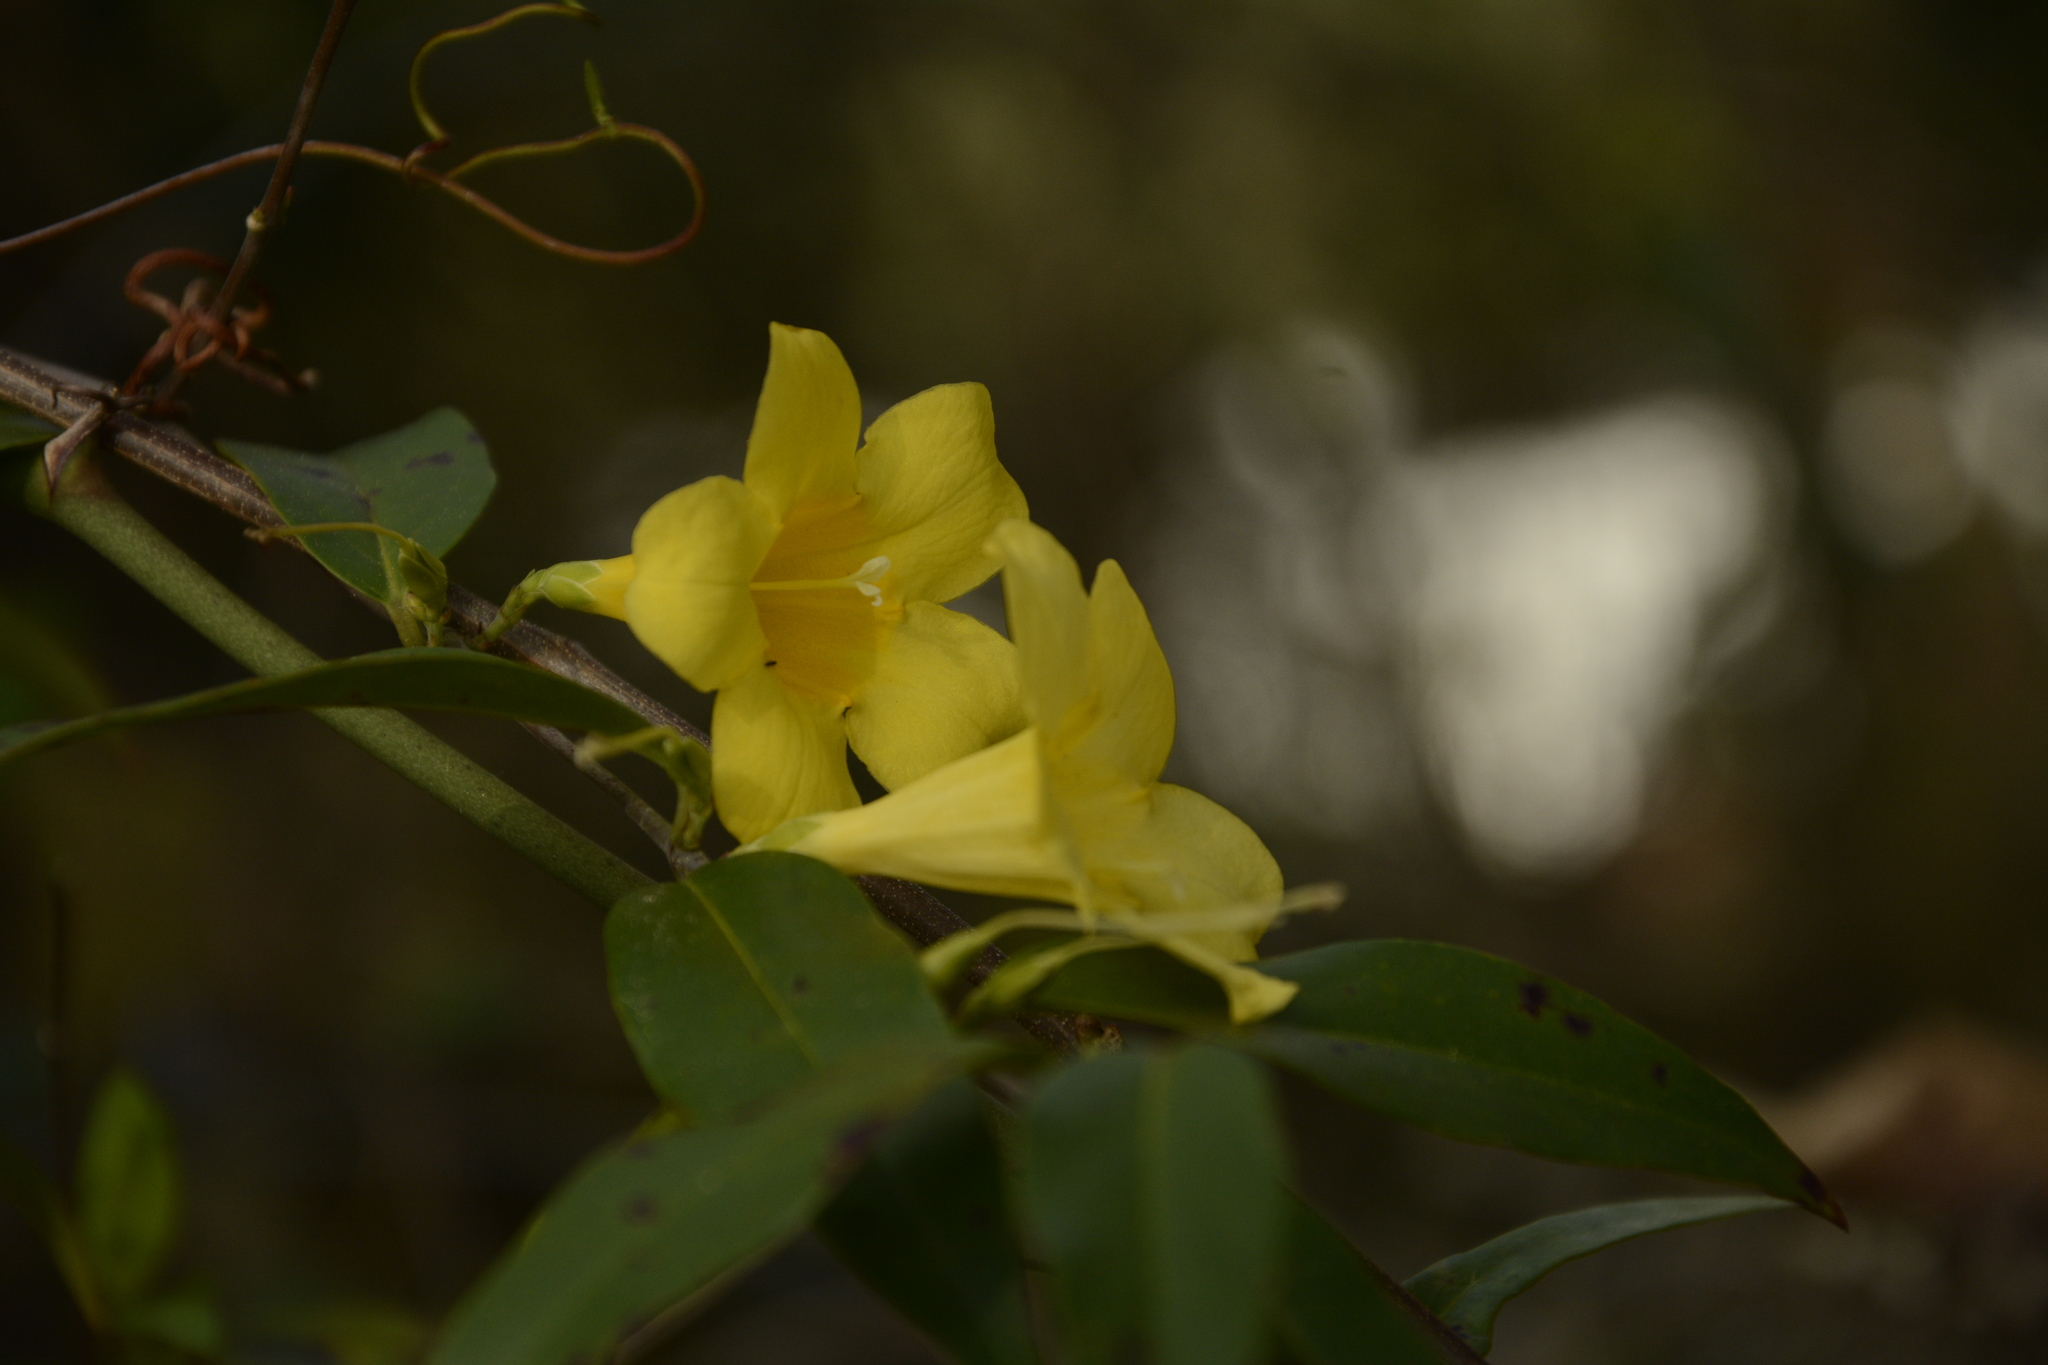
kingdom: Plantae
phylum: Tracheophyta
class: Magnoliopsida
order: Gentianales
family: Gelsemiaceae
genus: Gelsemium
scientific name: Gelsemium sempervirens
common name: Carolina-jasmine
